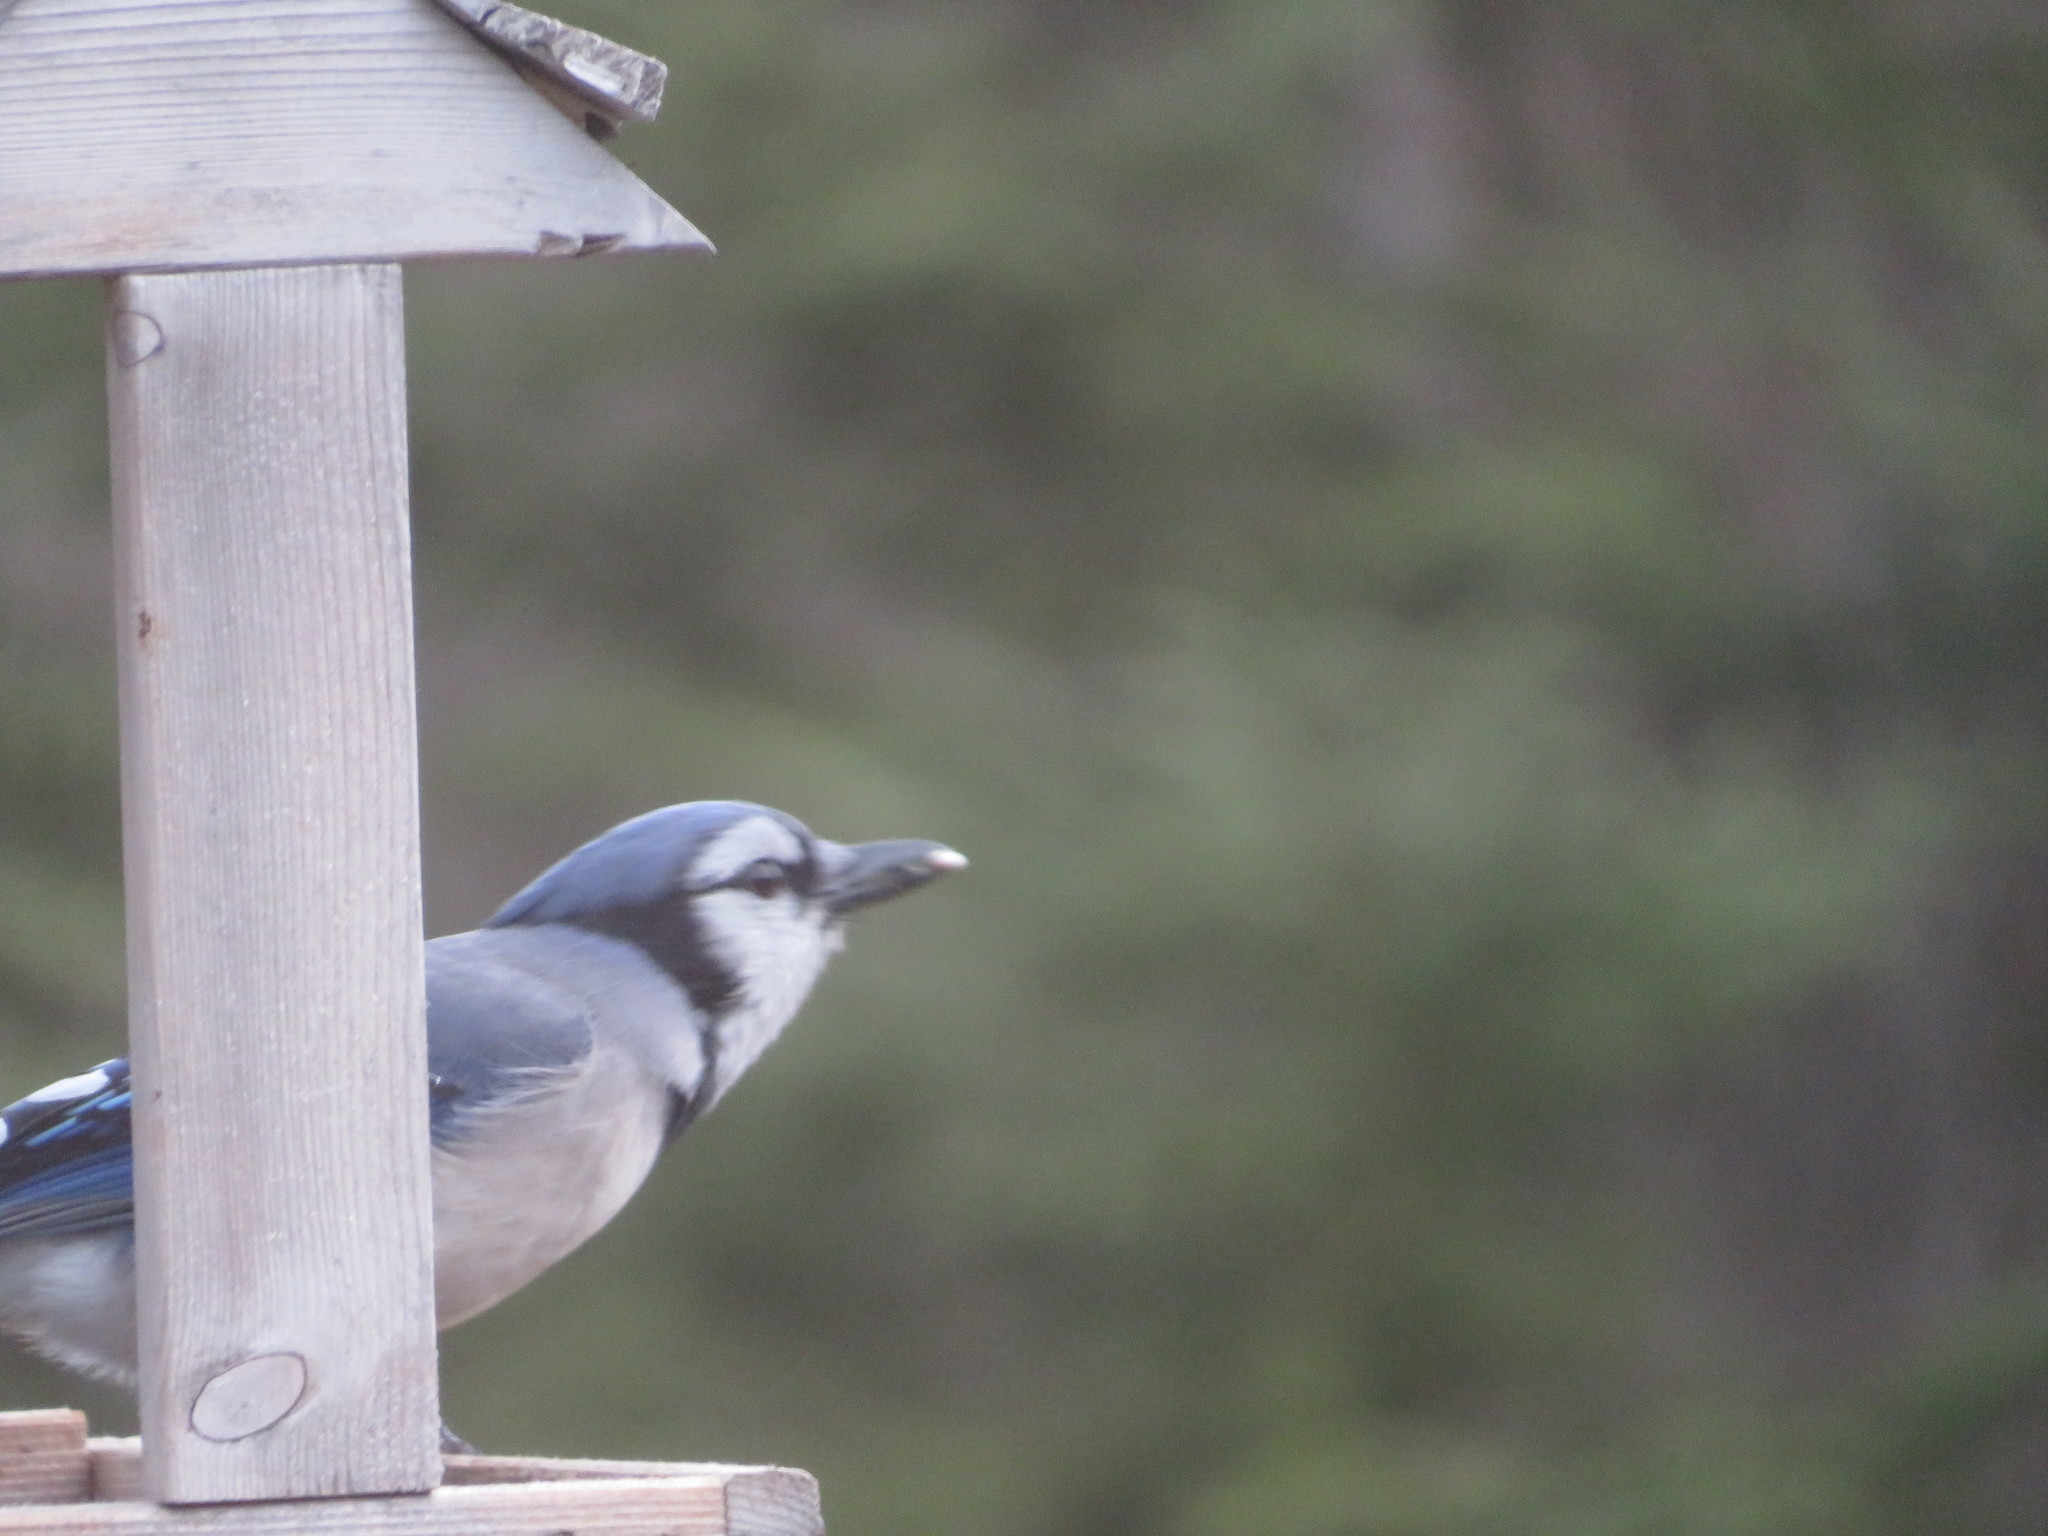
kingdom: Animalia
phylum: Chordata
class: Aves
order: Passeriformes
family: Corvidae
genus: Cyanocitta
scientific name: Cyanocitta cristata
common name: Blue jay
